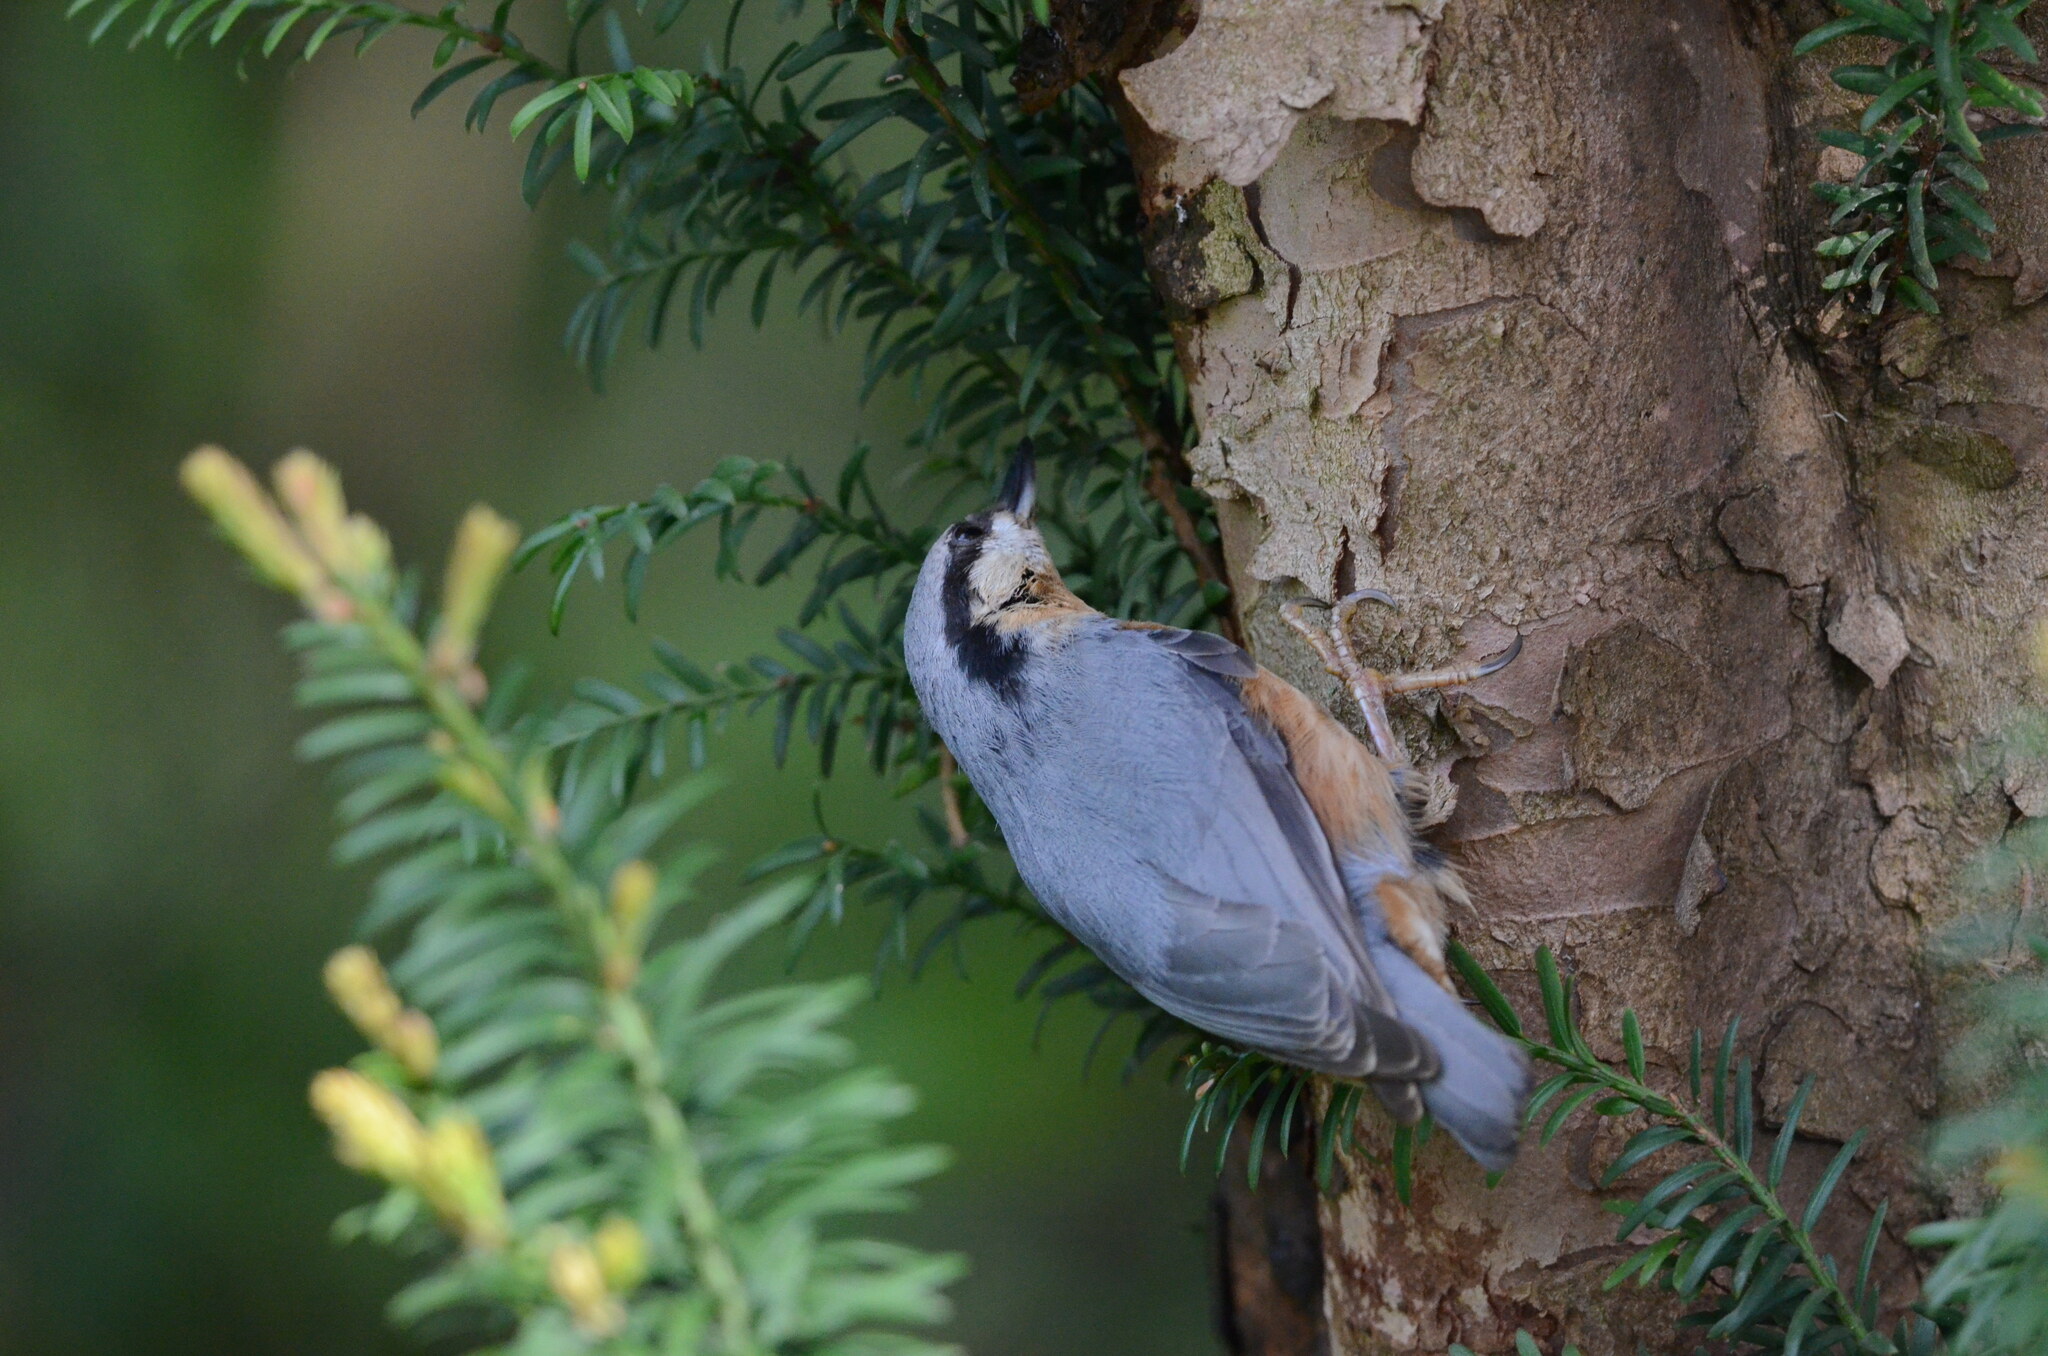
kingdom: Animalia
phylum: Chordata
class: Aves
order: Passeriformes
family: Sittidae
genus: Sitta
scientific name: Sitta europaea
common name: Eurasian nuthatch
